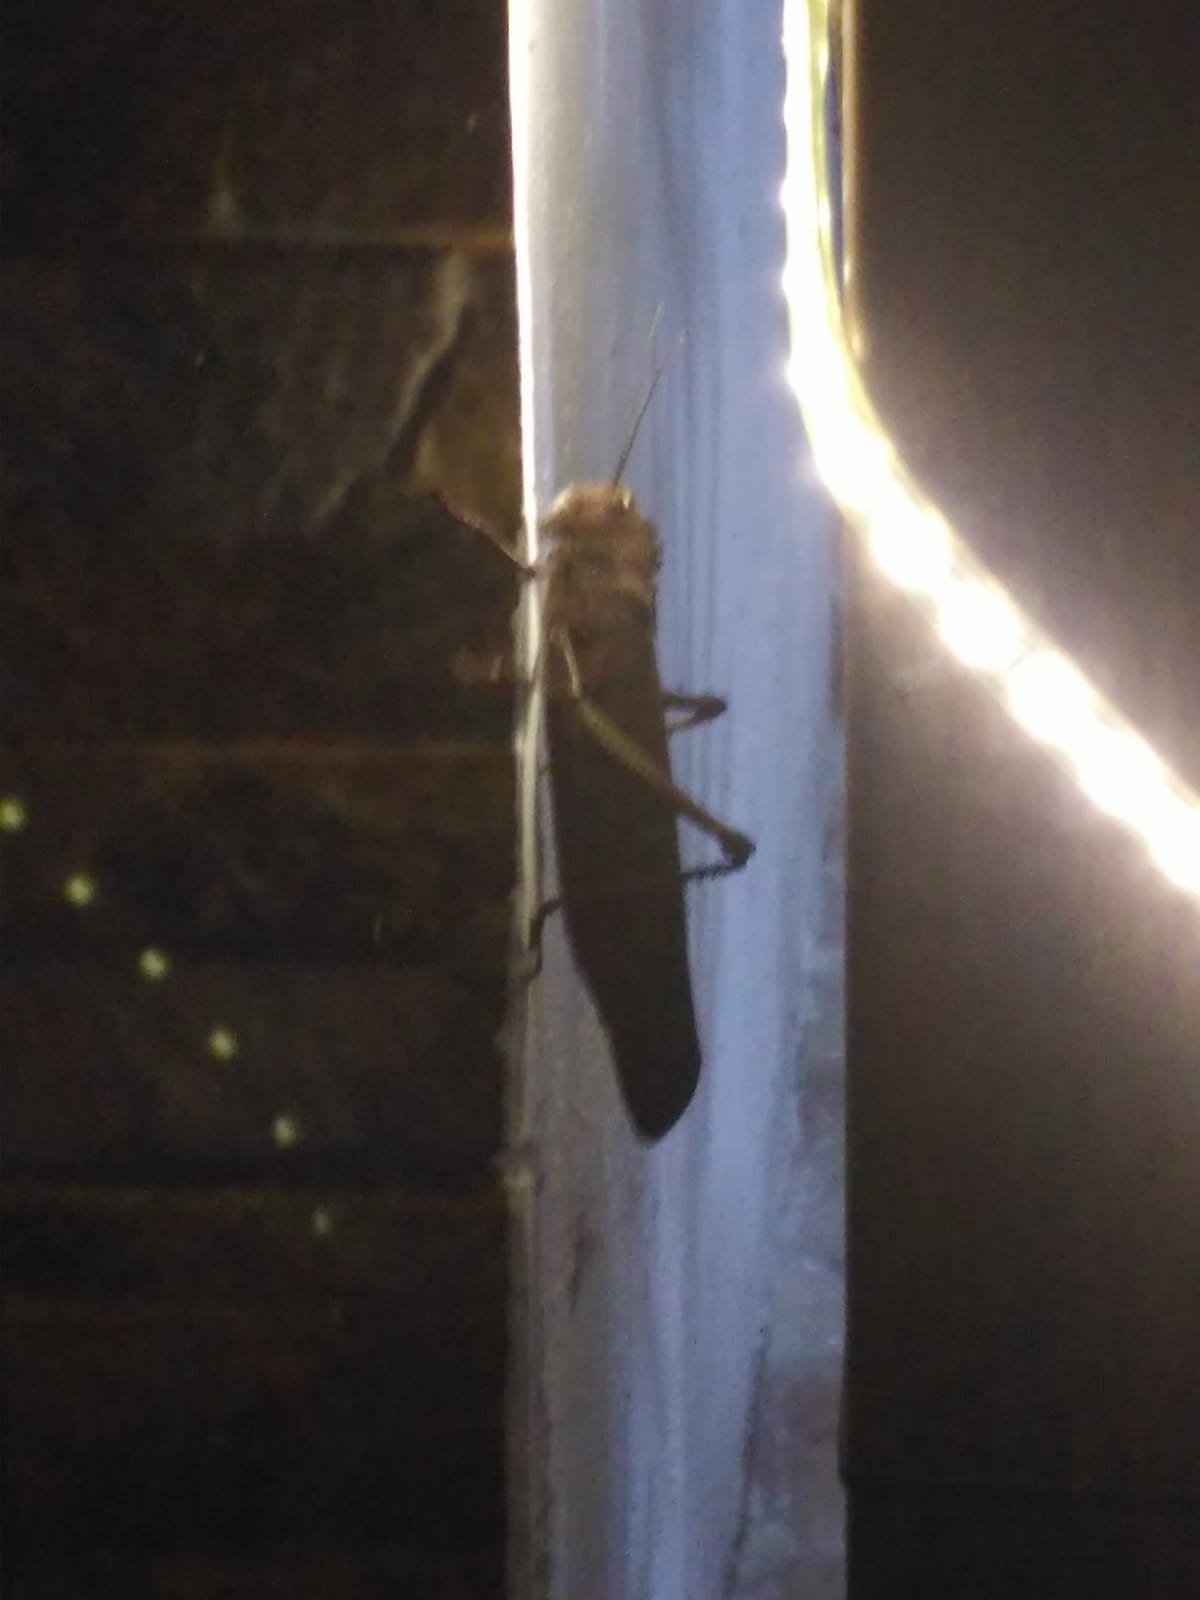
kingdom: Animalia
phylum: Arthropoda
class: Insecta
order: Orthoptera
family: Romaleidae
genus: Tropidacris
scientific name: Tropidacris cristata
